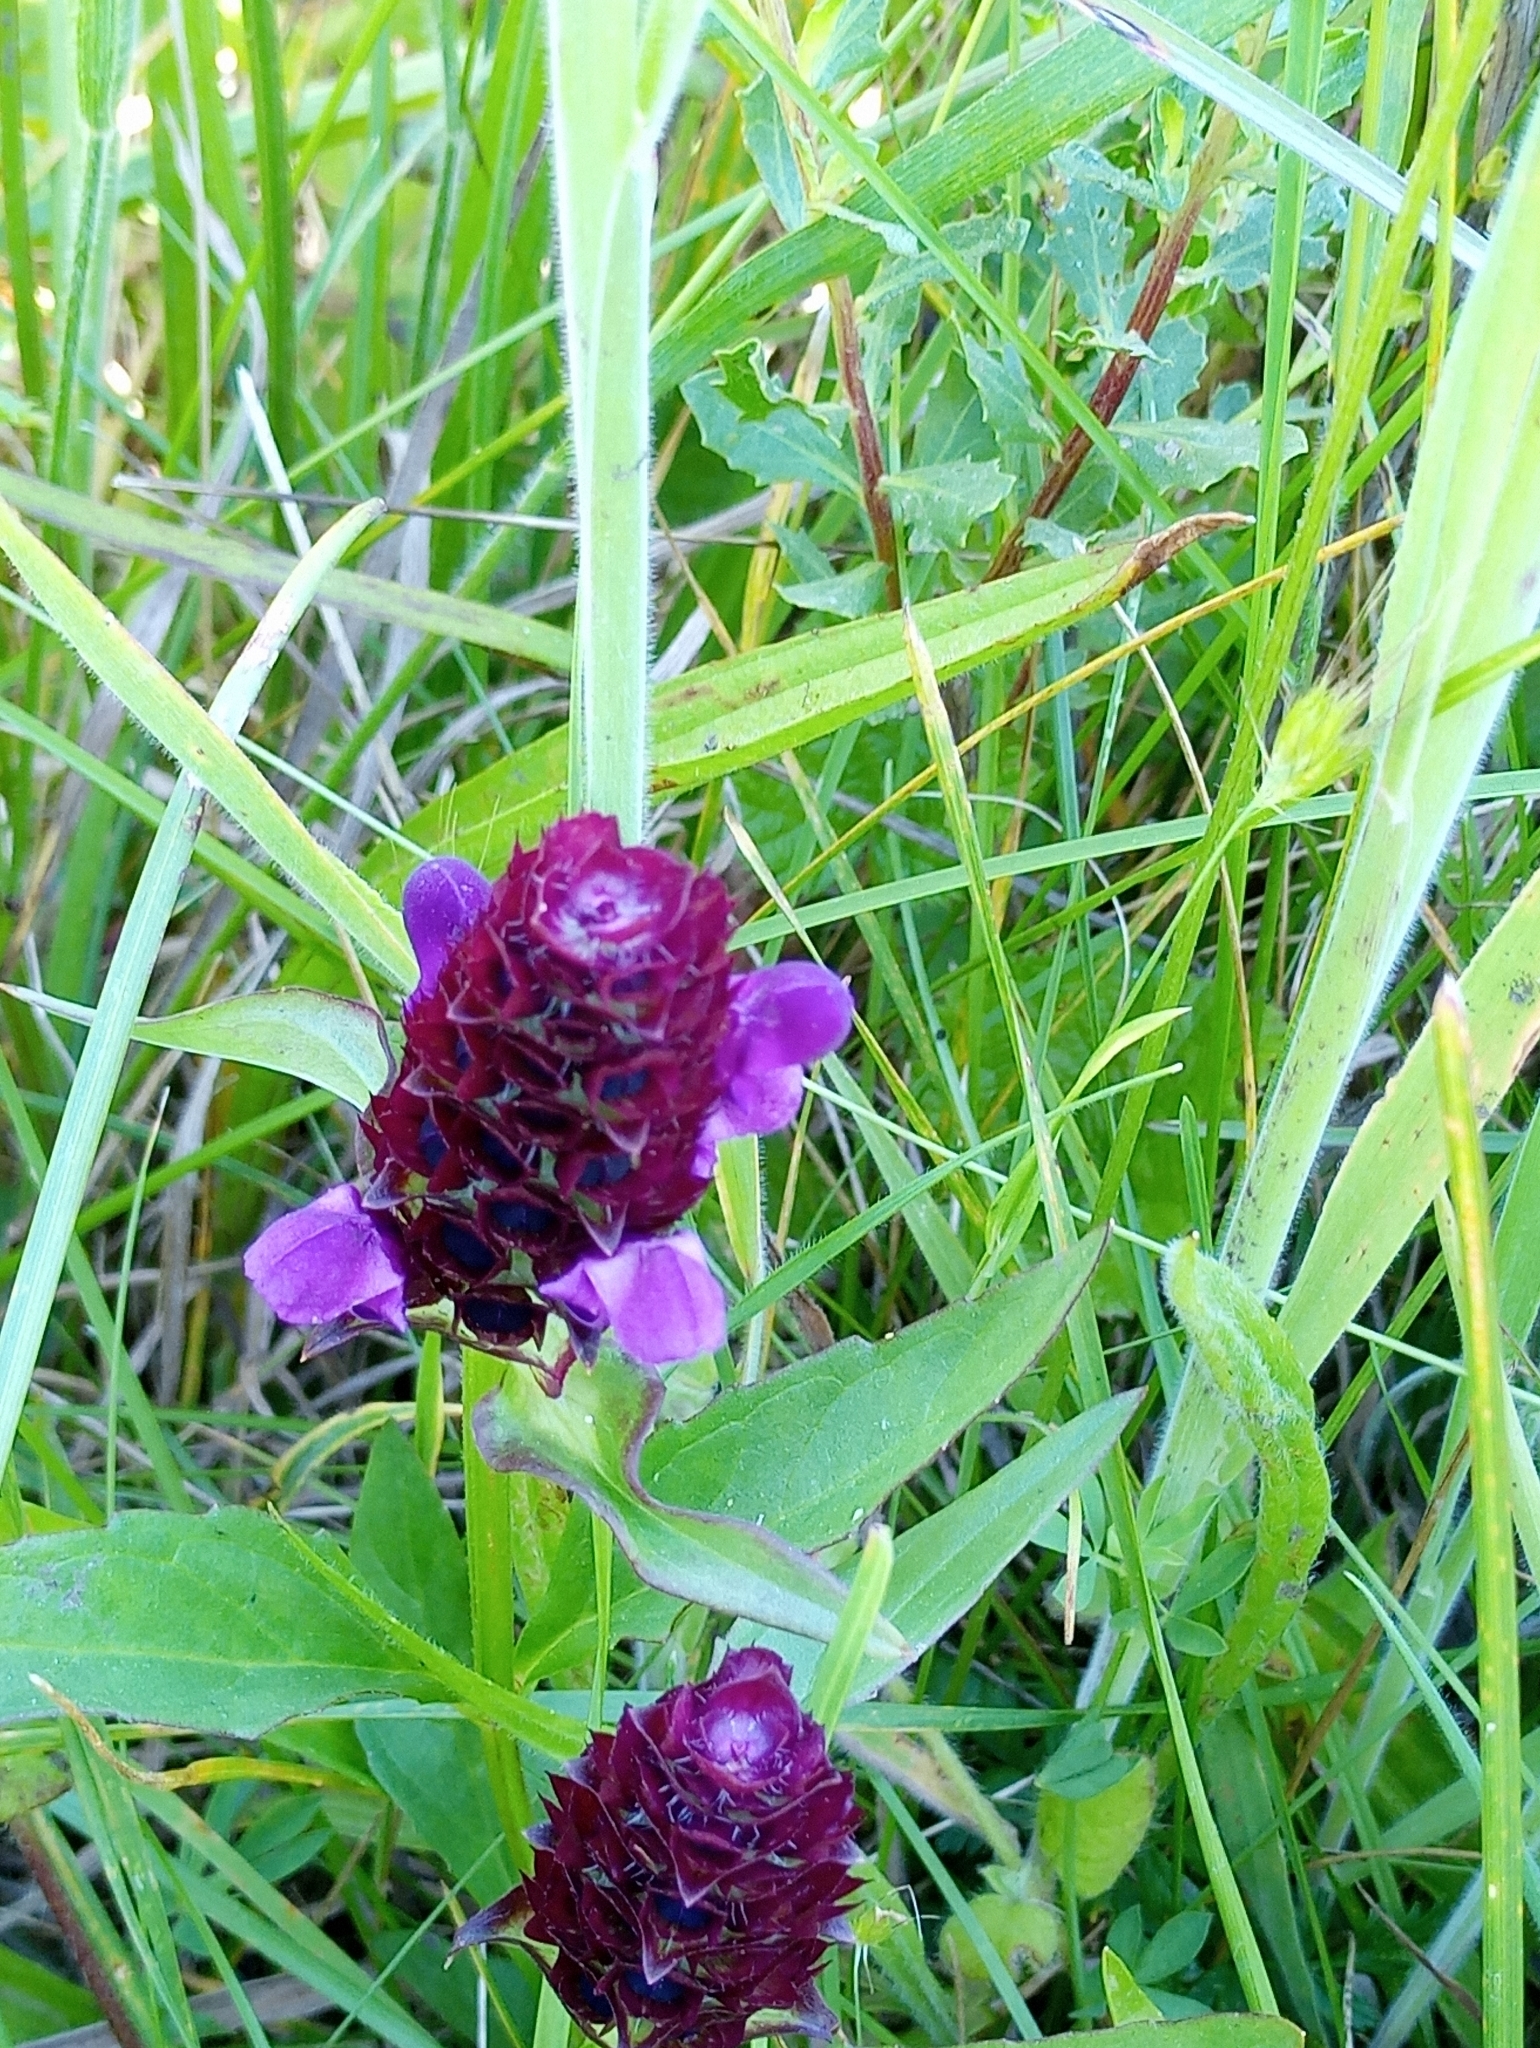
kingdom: Plantae
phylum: Tracheophyta
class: Magnoliopsida
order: Lamiales
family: Lamiaceae
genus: Prunella
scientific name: Prunella vulgaris
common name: Heal-all
